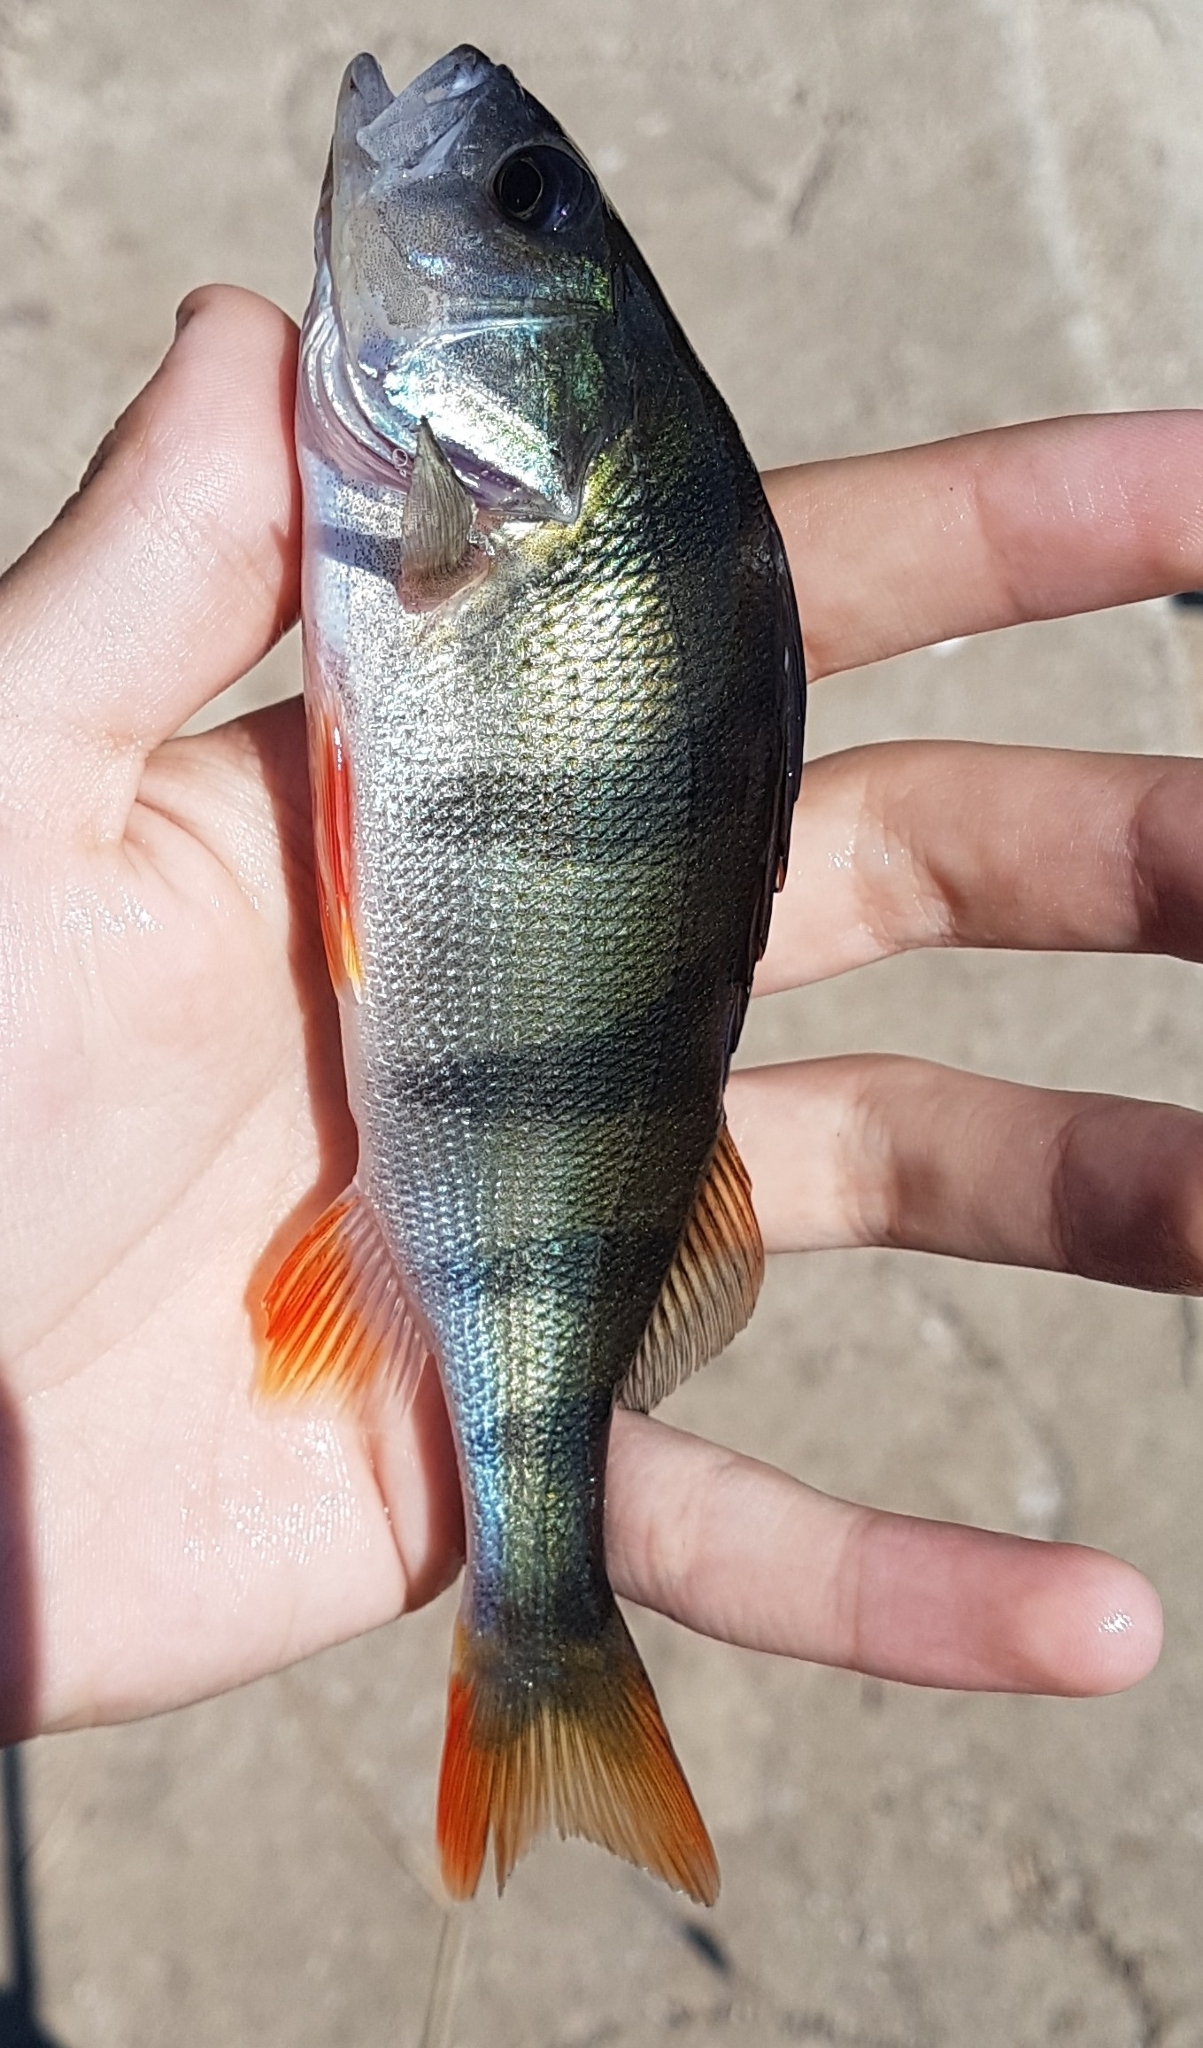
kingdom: Animalia
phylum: Chordata
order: Perciformes
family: Percidae
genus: Perca
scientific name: Perca fluviatilis
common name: Perch
